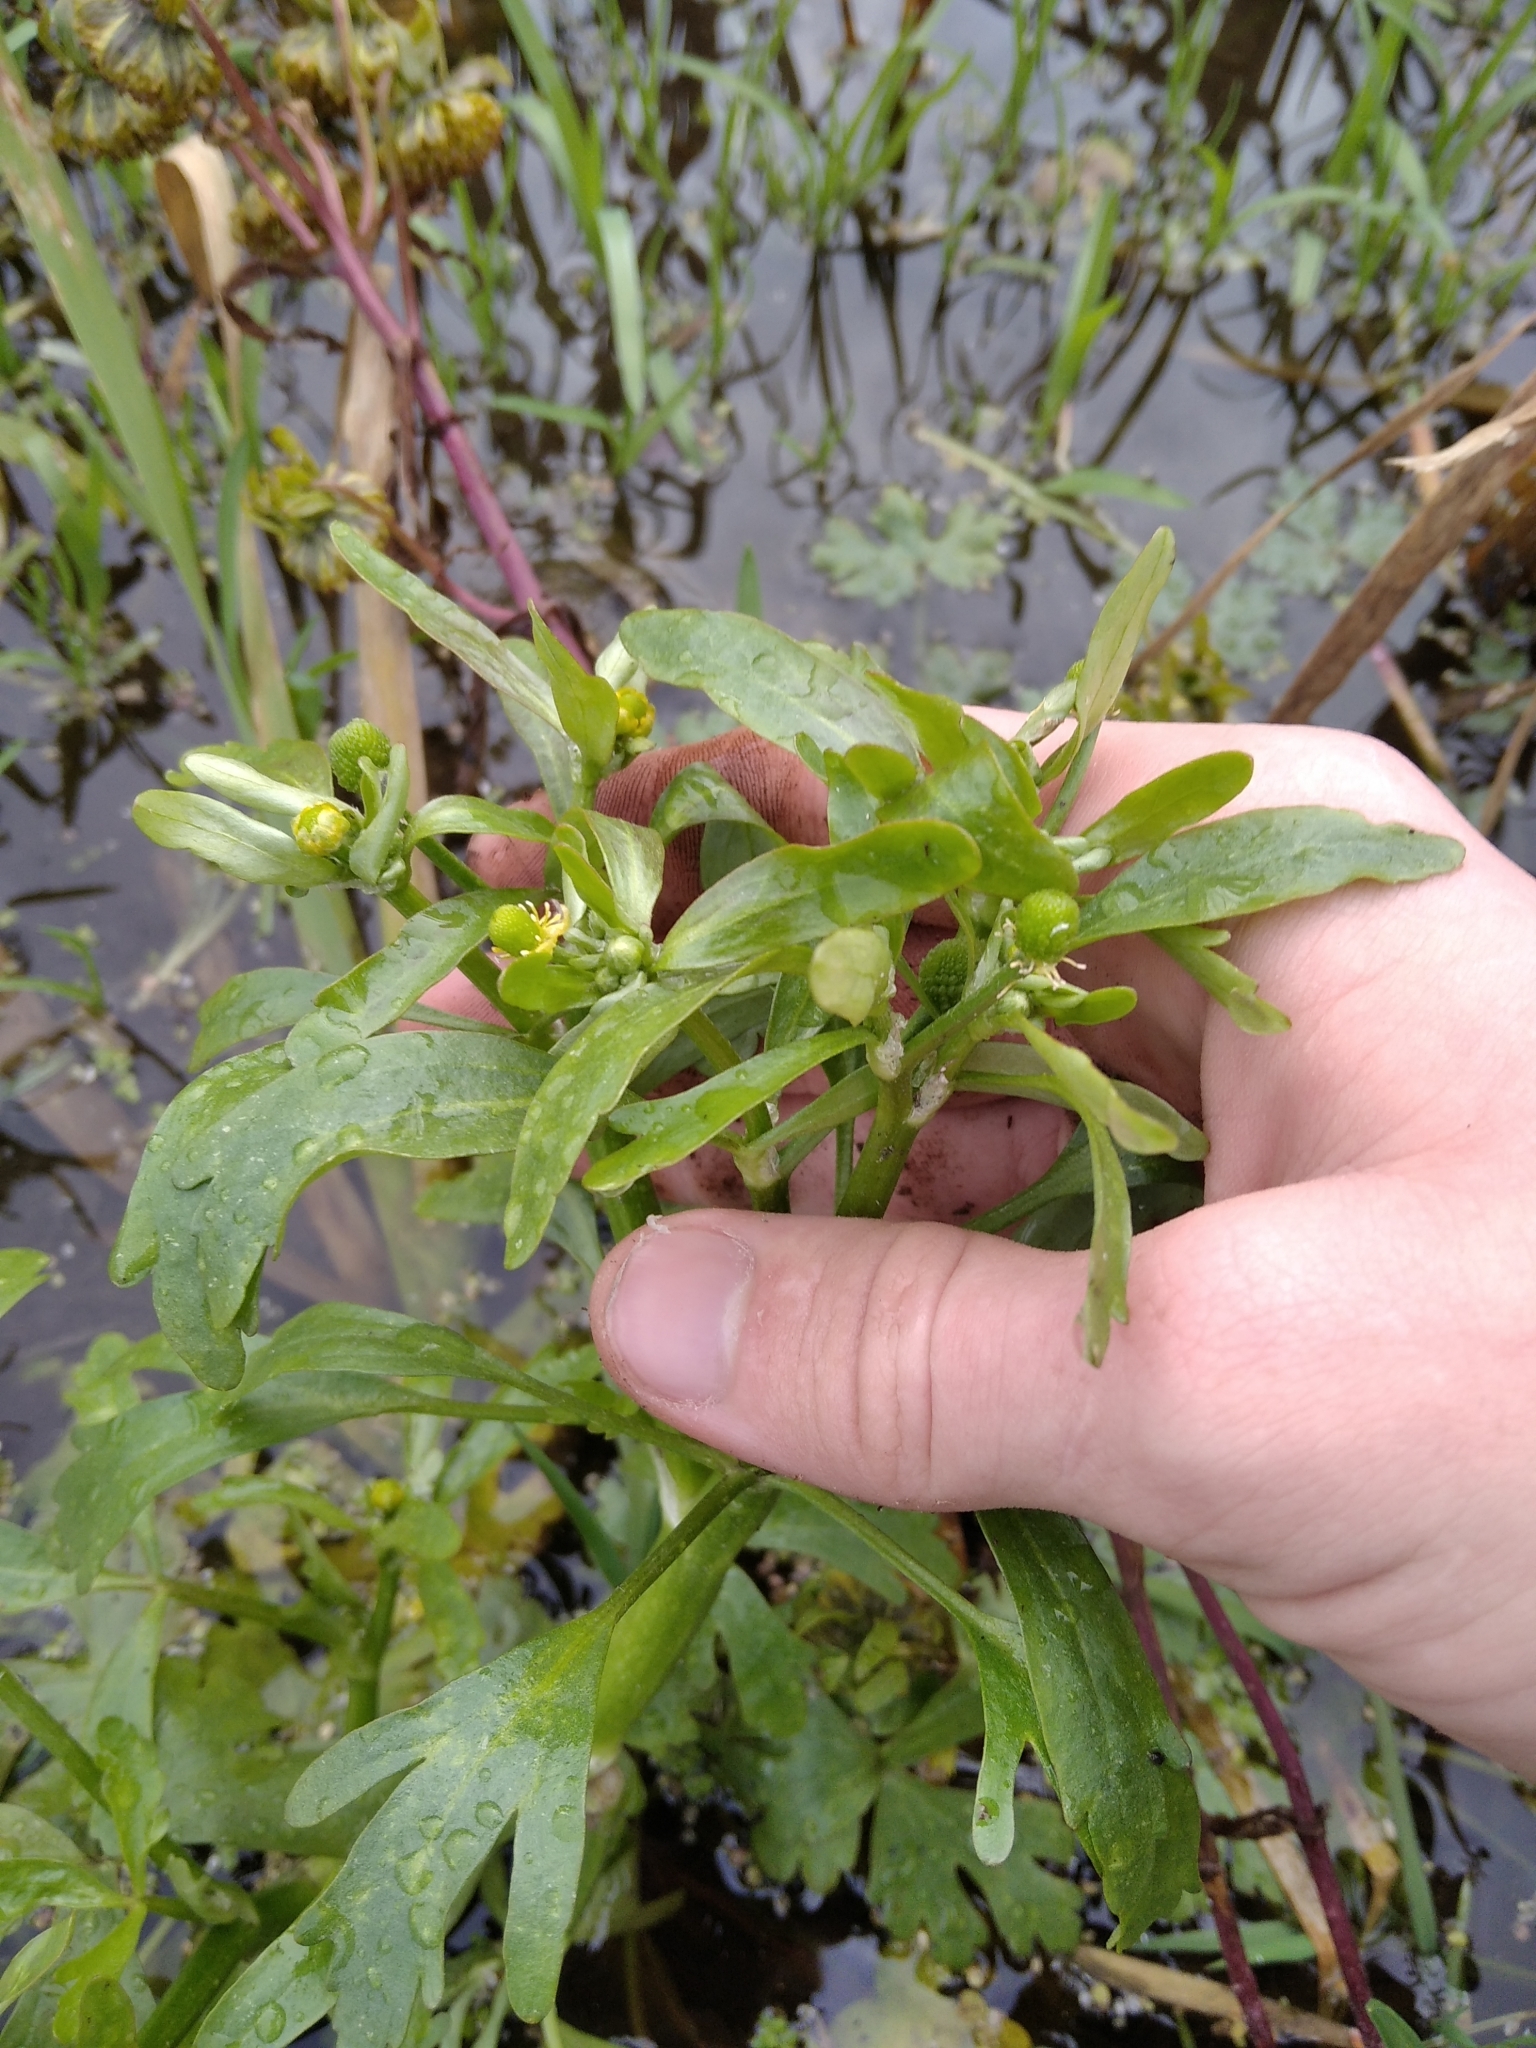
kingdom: Plantae
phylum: Tracheophyta
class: Magnoliopsida
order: Ranunculales
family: Ranunculaceae
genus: Ranunculus
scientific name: Ranunculus sceleratus
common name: Celery-leaved buttercup
